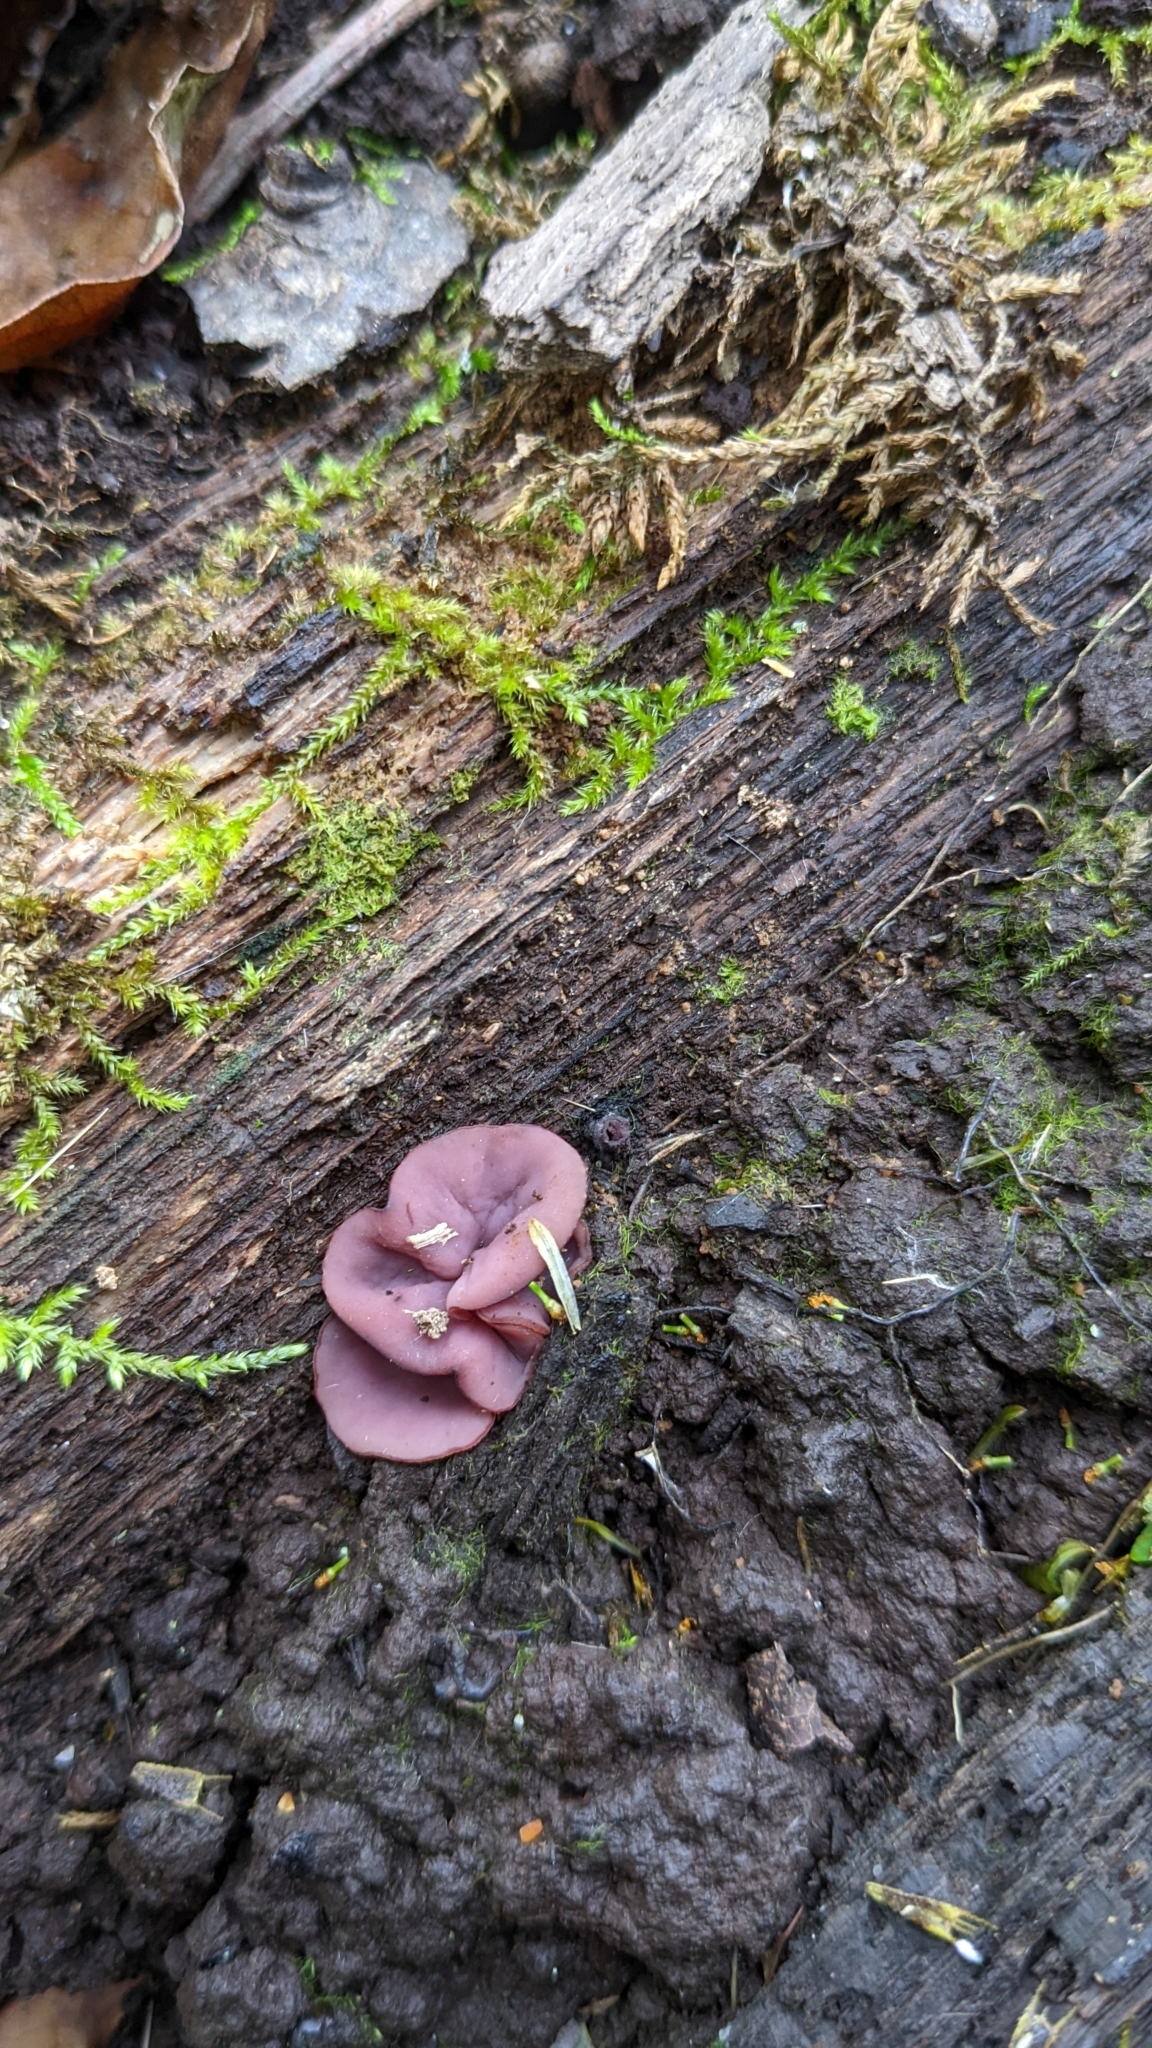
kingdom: Fungi
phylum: Ascomycota
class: Leotiomycetes
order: Helotiales
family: Gelatinodiscaceae
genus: Ascocoryne
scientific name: Ascocoryne sarcoides
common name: Purple jellydisc
